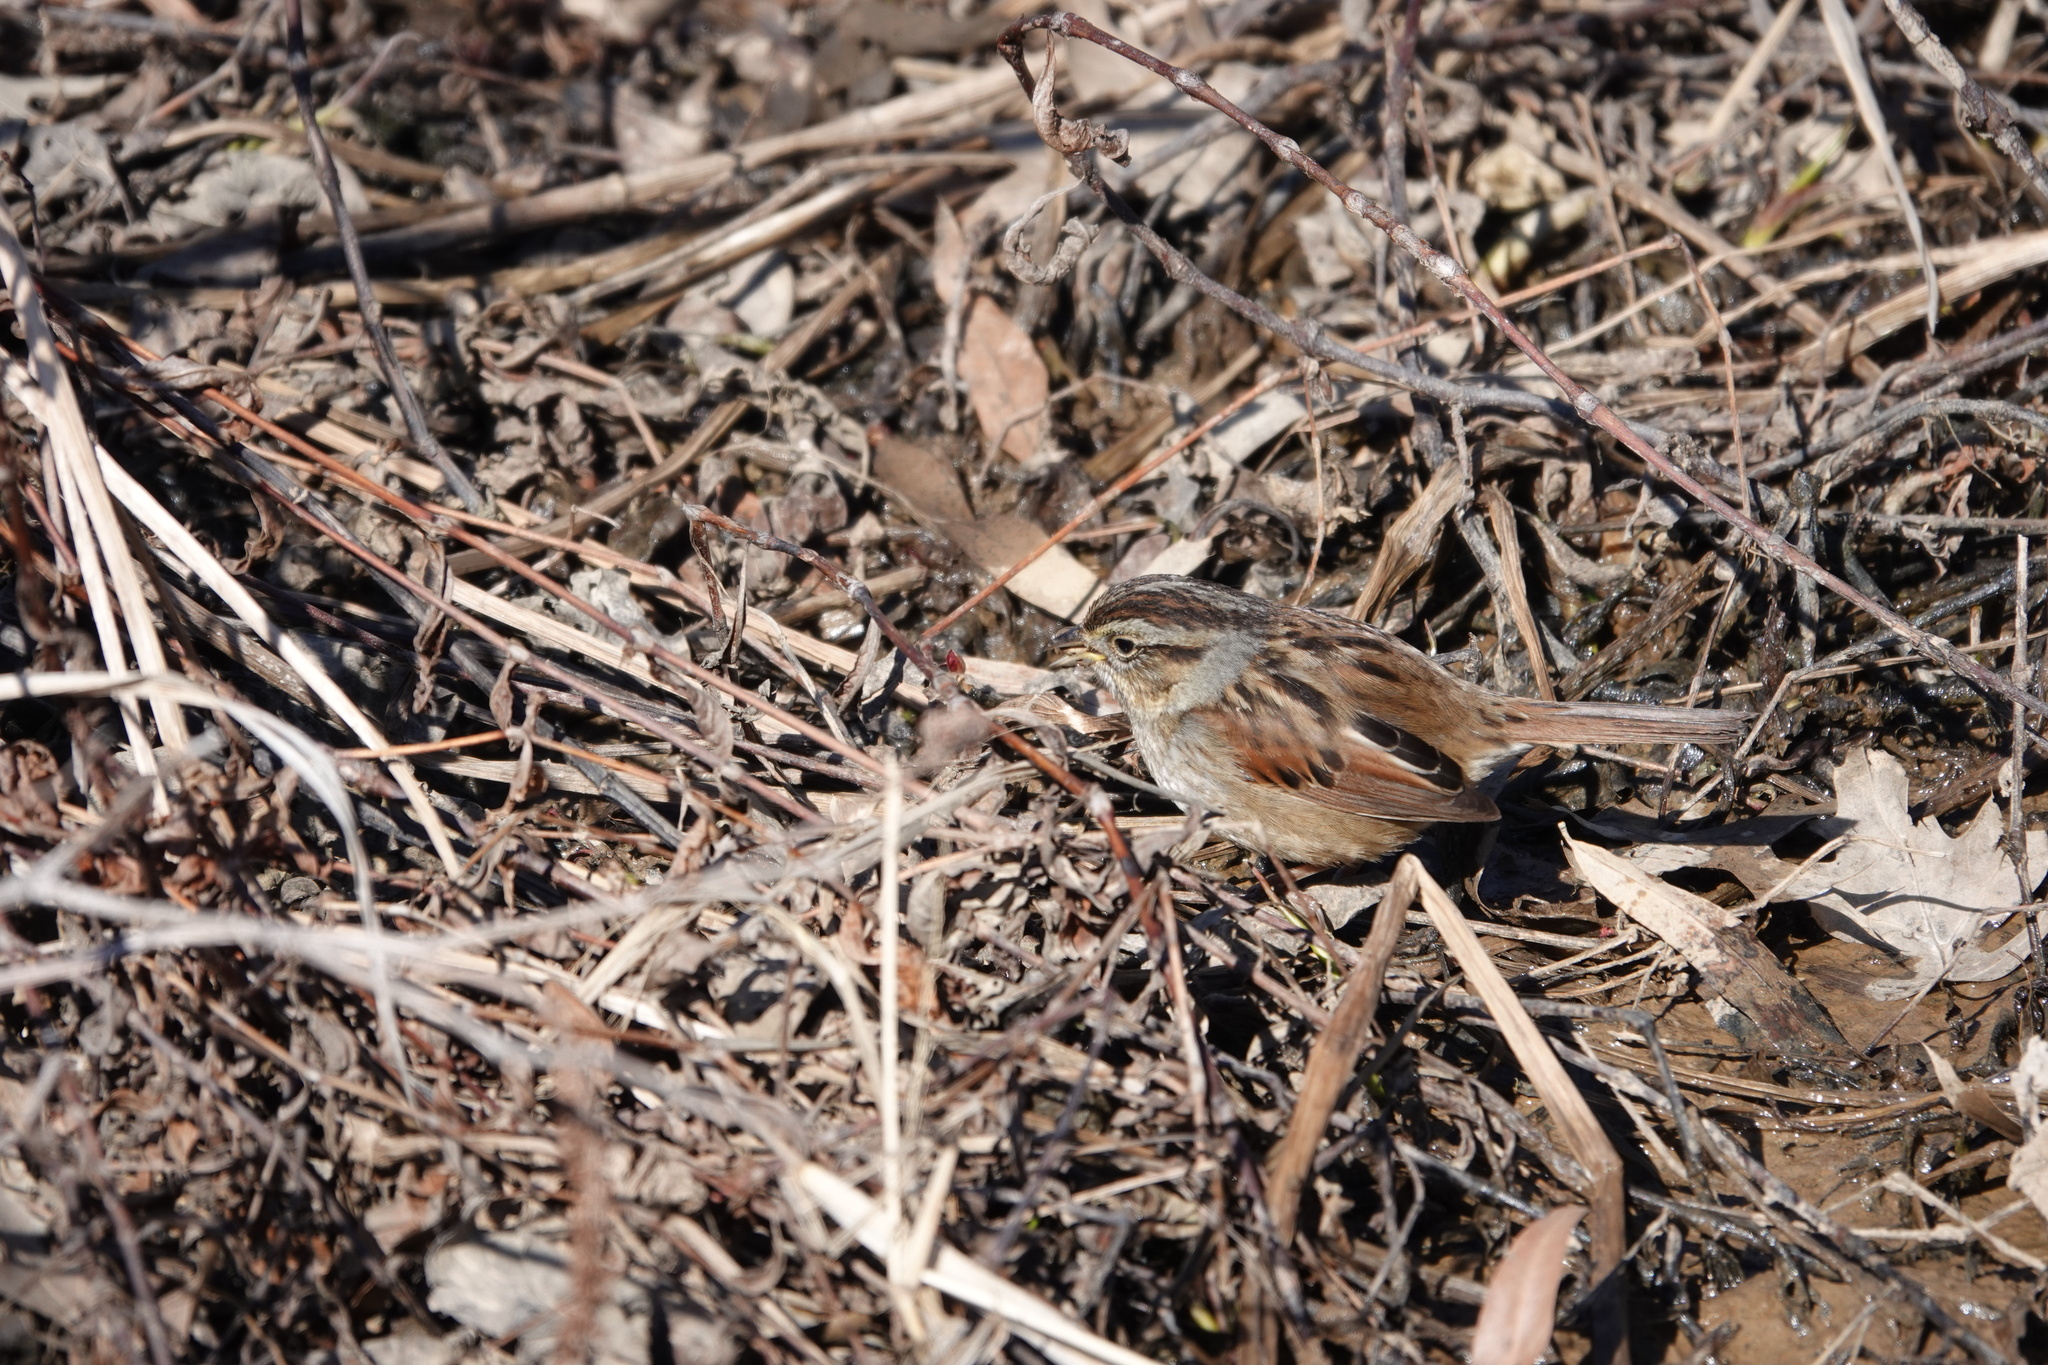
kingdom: Animalia
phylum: Chordata
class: Aves
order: Passeriformes
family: Passerellidae
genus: Melospiza
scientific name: Melospiza georgiana
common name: Swamp sparrow
